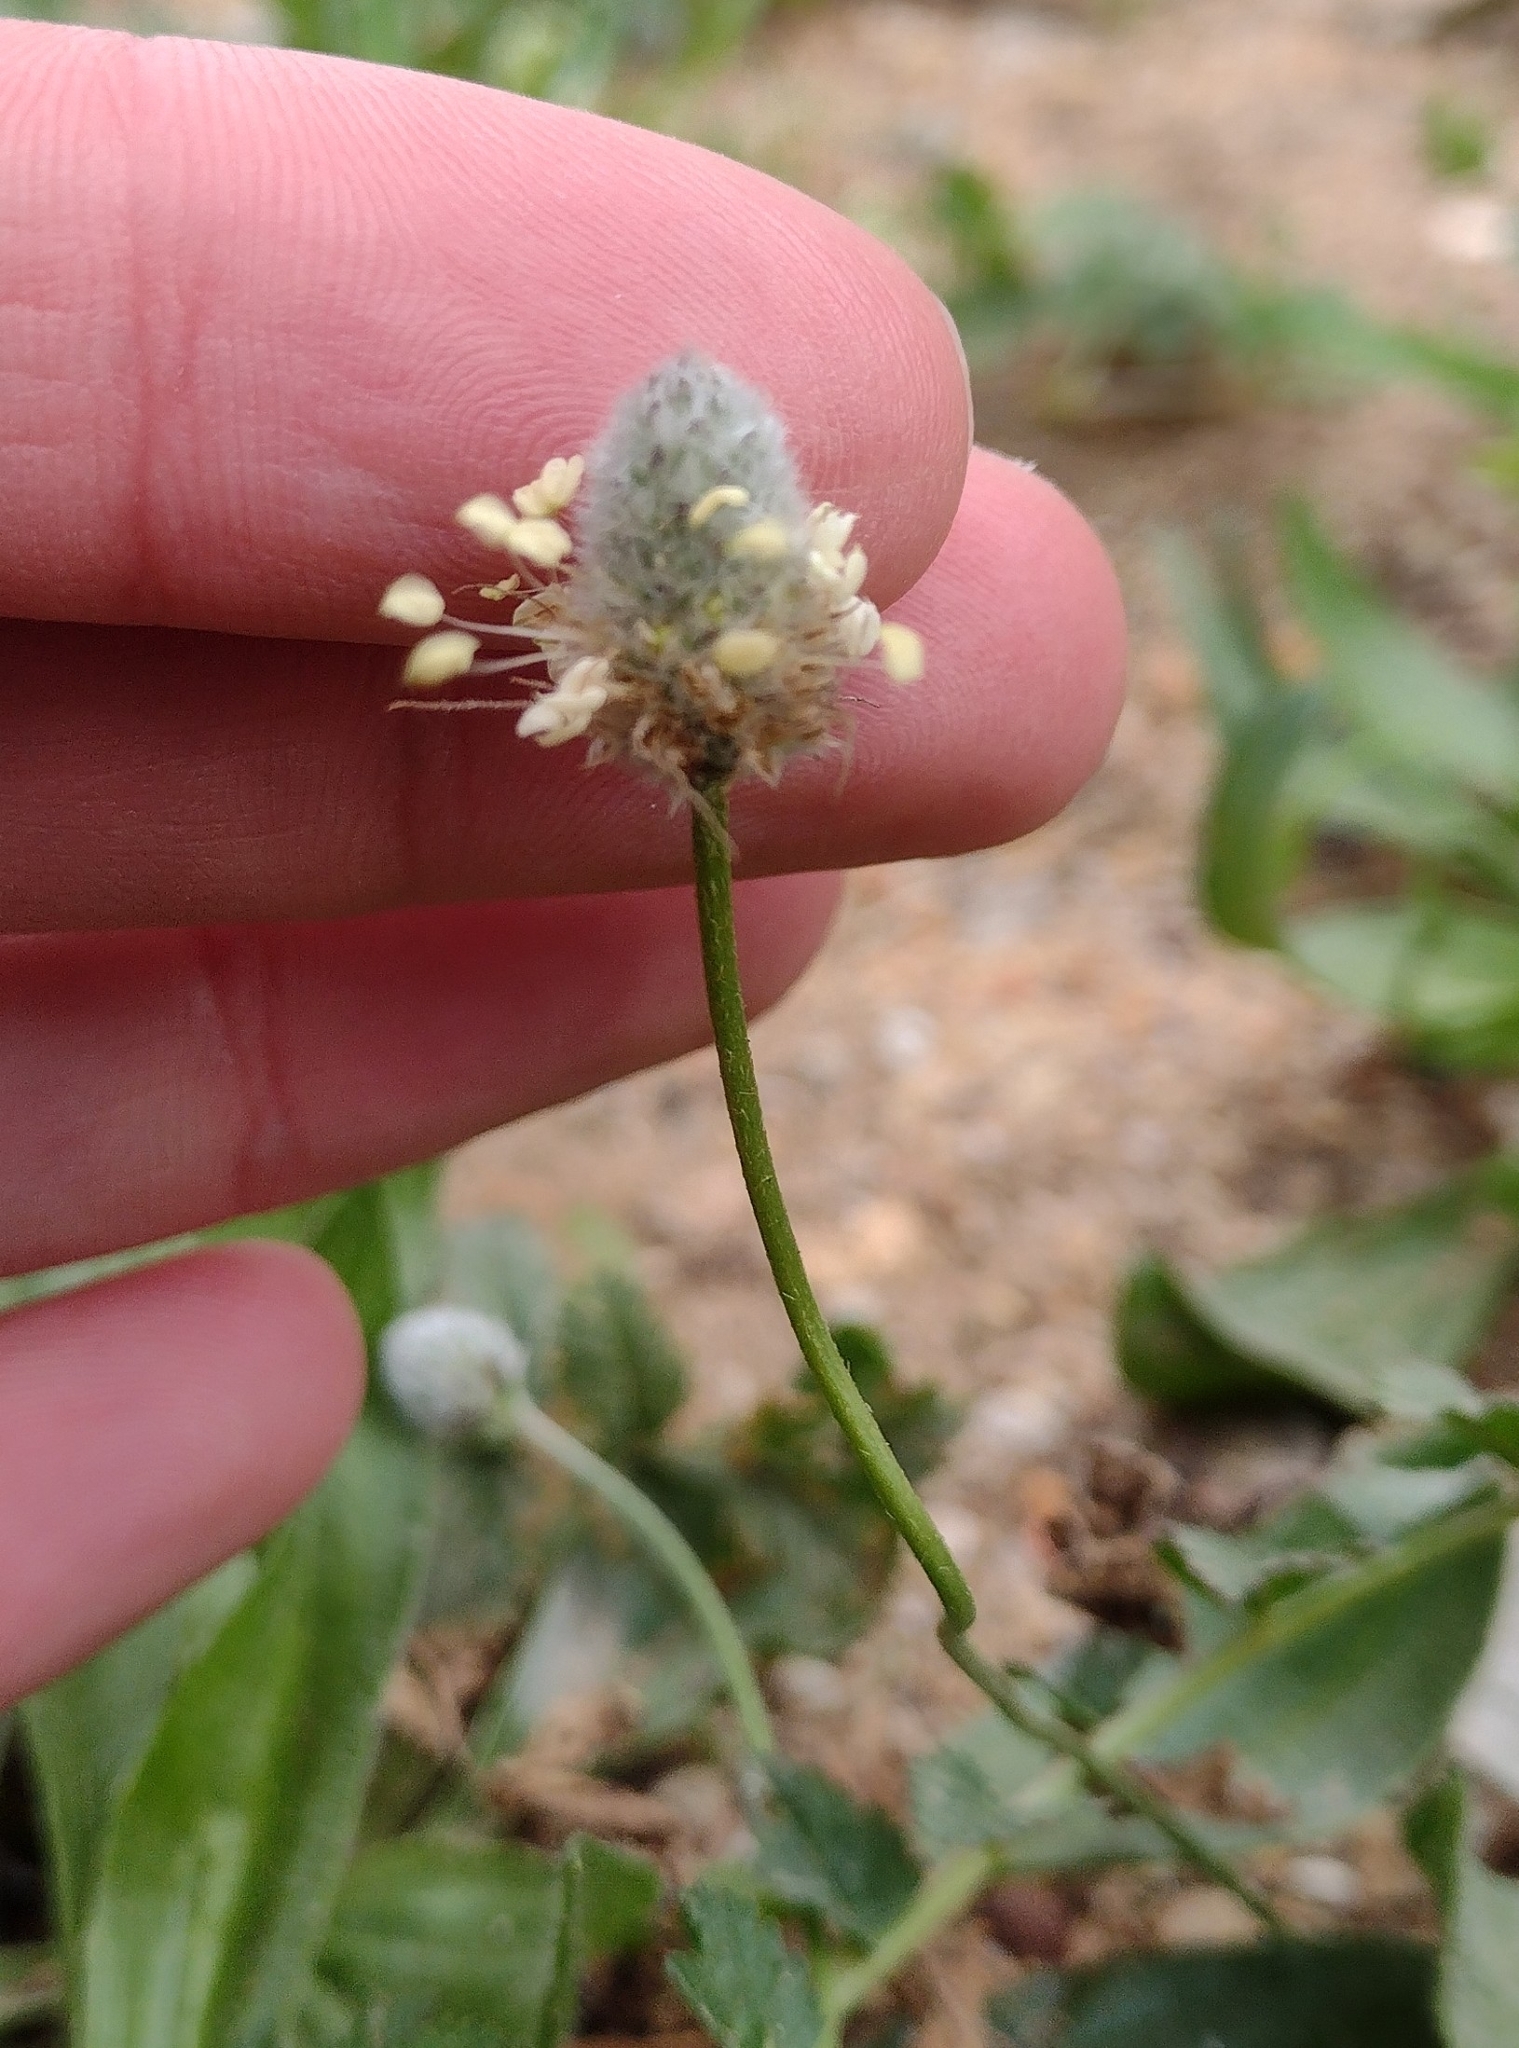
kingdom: Plantae
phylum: Tracheophyta
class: Magnoliopsida
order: Lamiales
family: Plantaginaceae
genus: Plantago
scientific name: Plantago lagopus
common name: Hare-foot plantain
